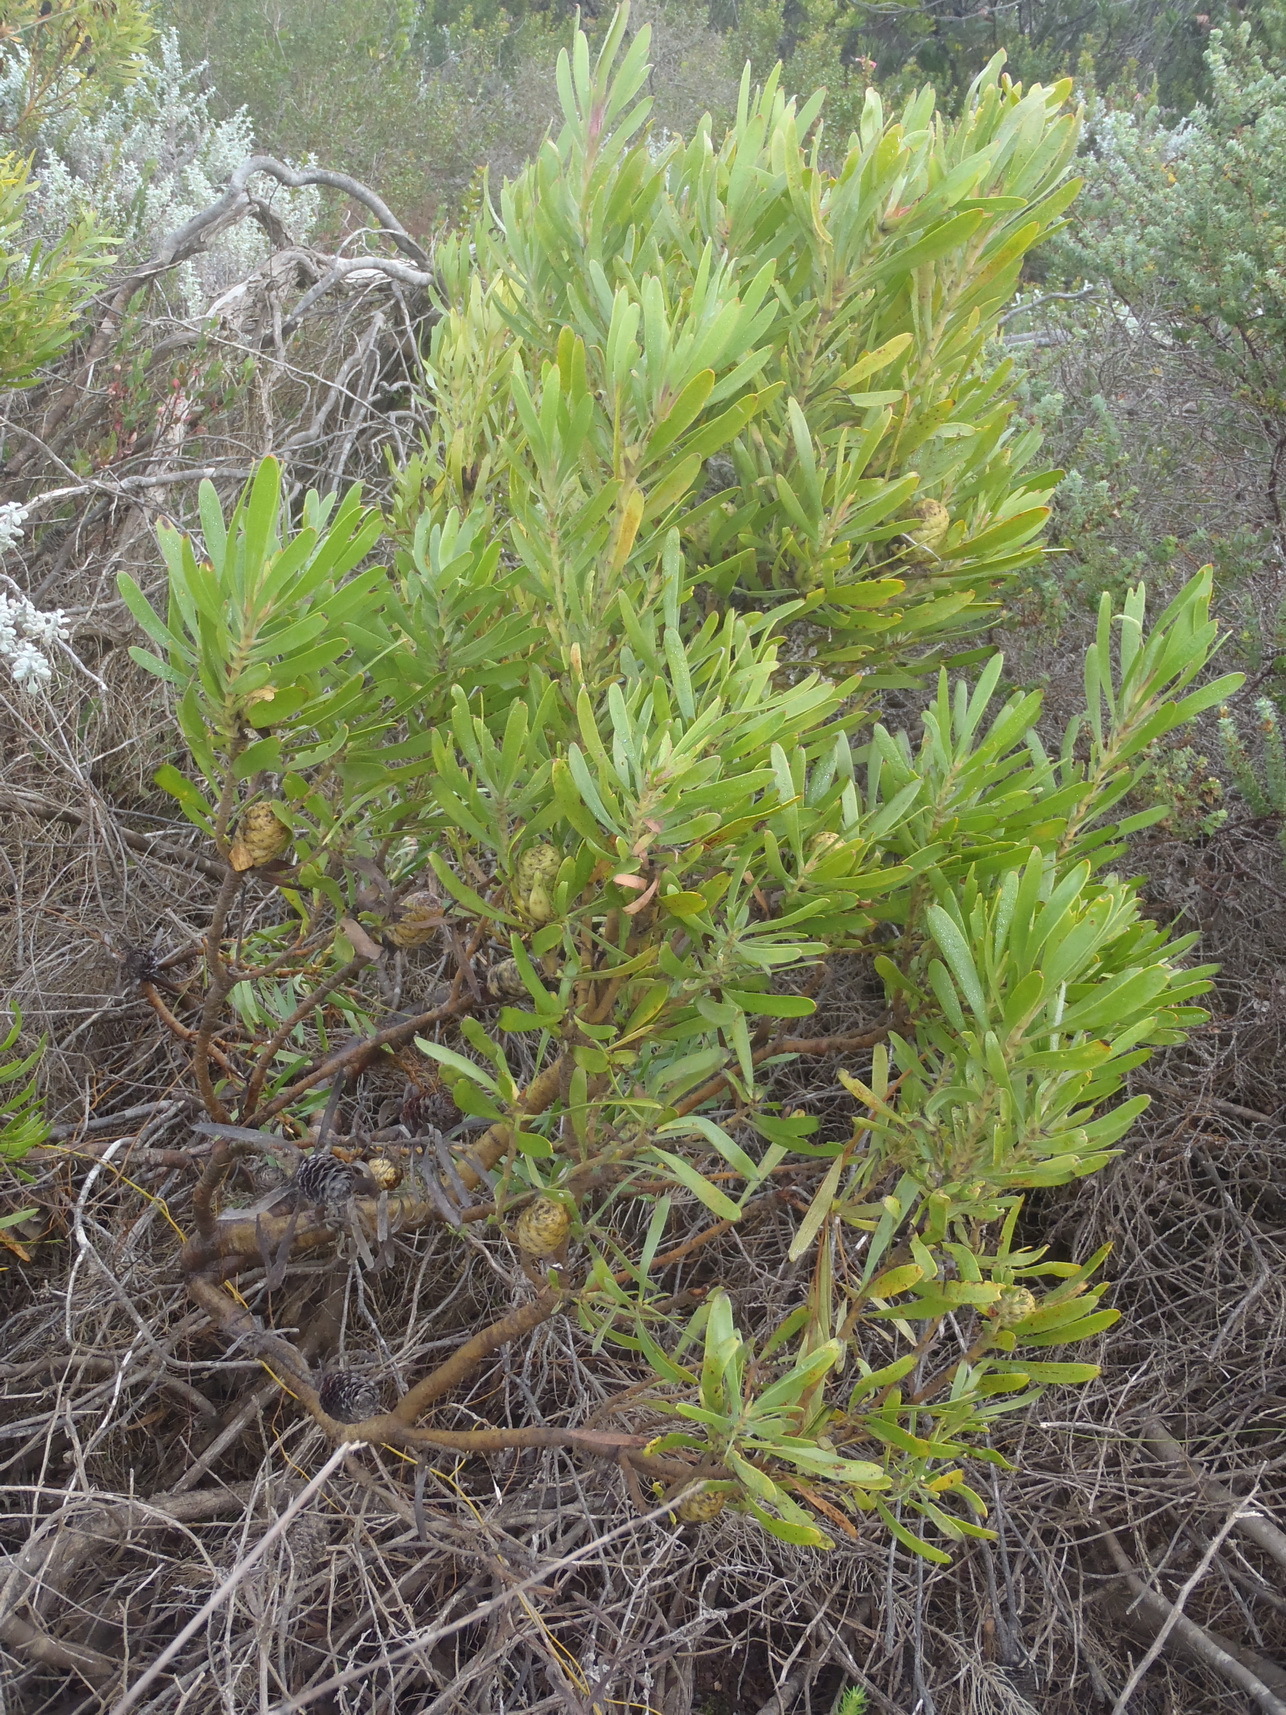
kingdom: Plantae
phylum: Tracheophyta
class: Magnoliopsida
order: Proteales
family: Proteaceae
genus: Leucadendron
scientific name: Leucadendron meridianum
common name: Limestone conebush
